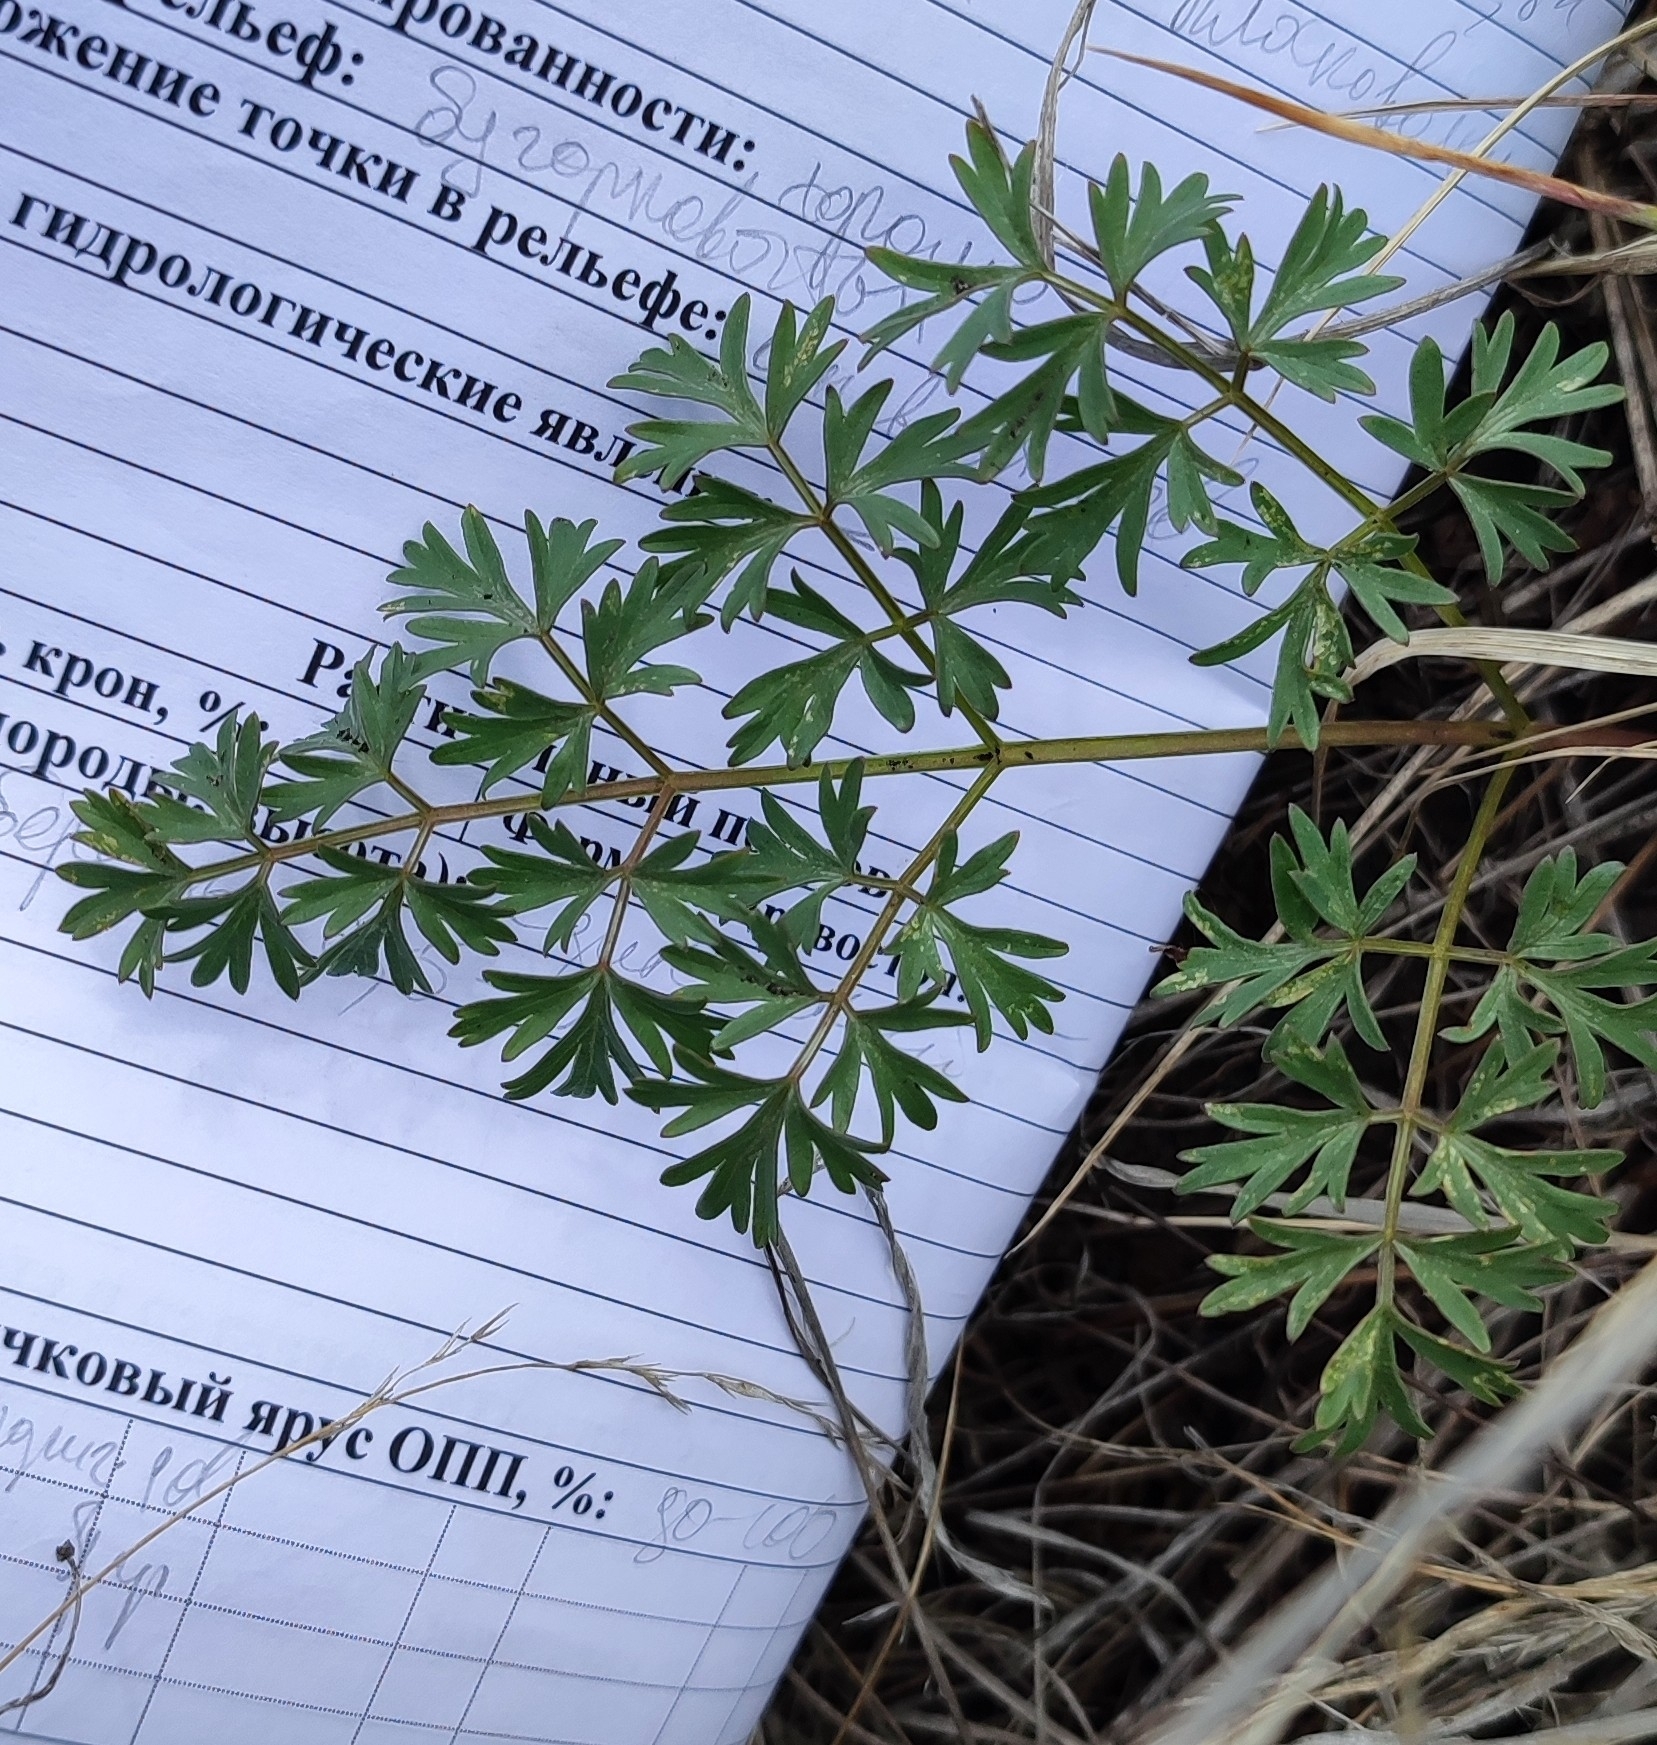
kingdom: Plantae
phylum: Tracheophyta
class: Magnoliopsida
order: Apiales
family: Apiaceae
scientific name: Apiaceae
